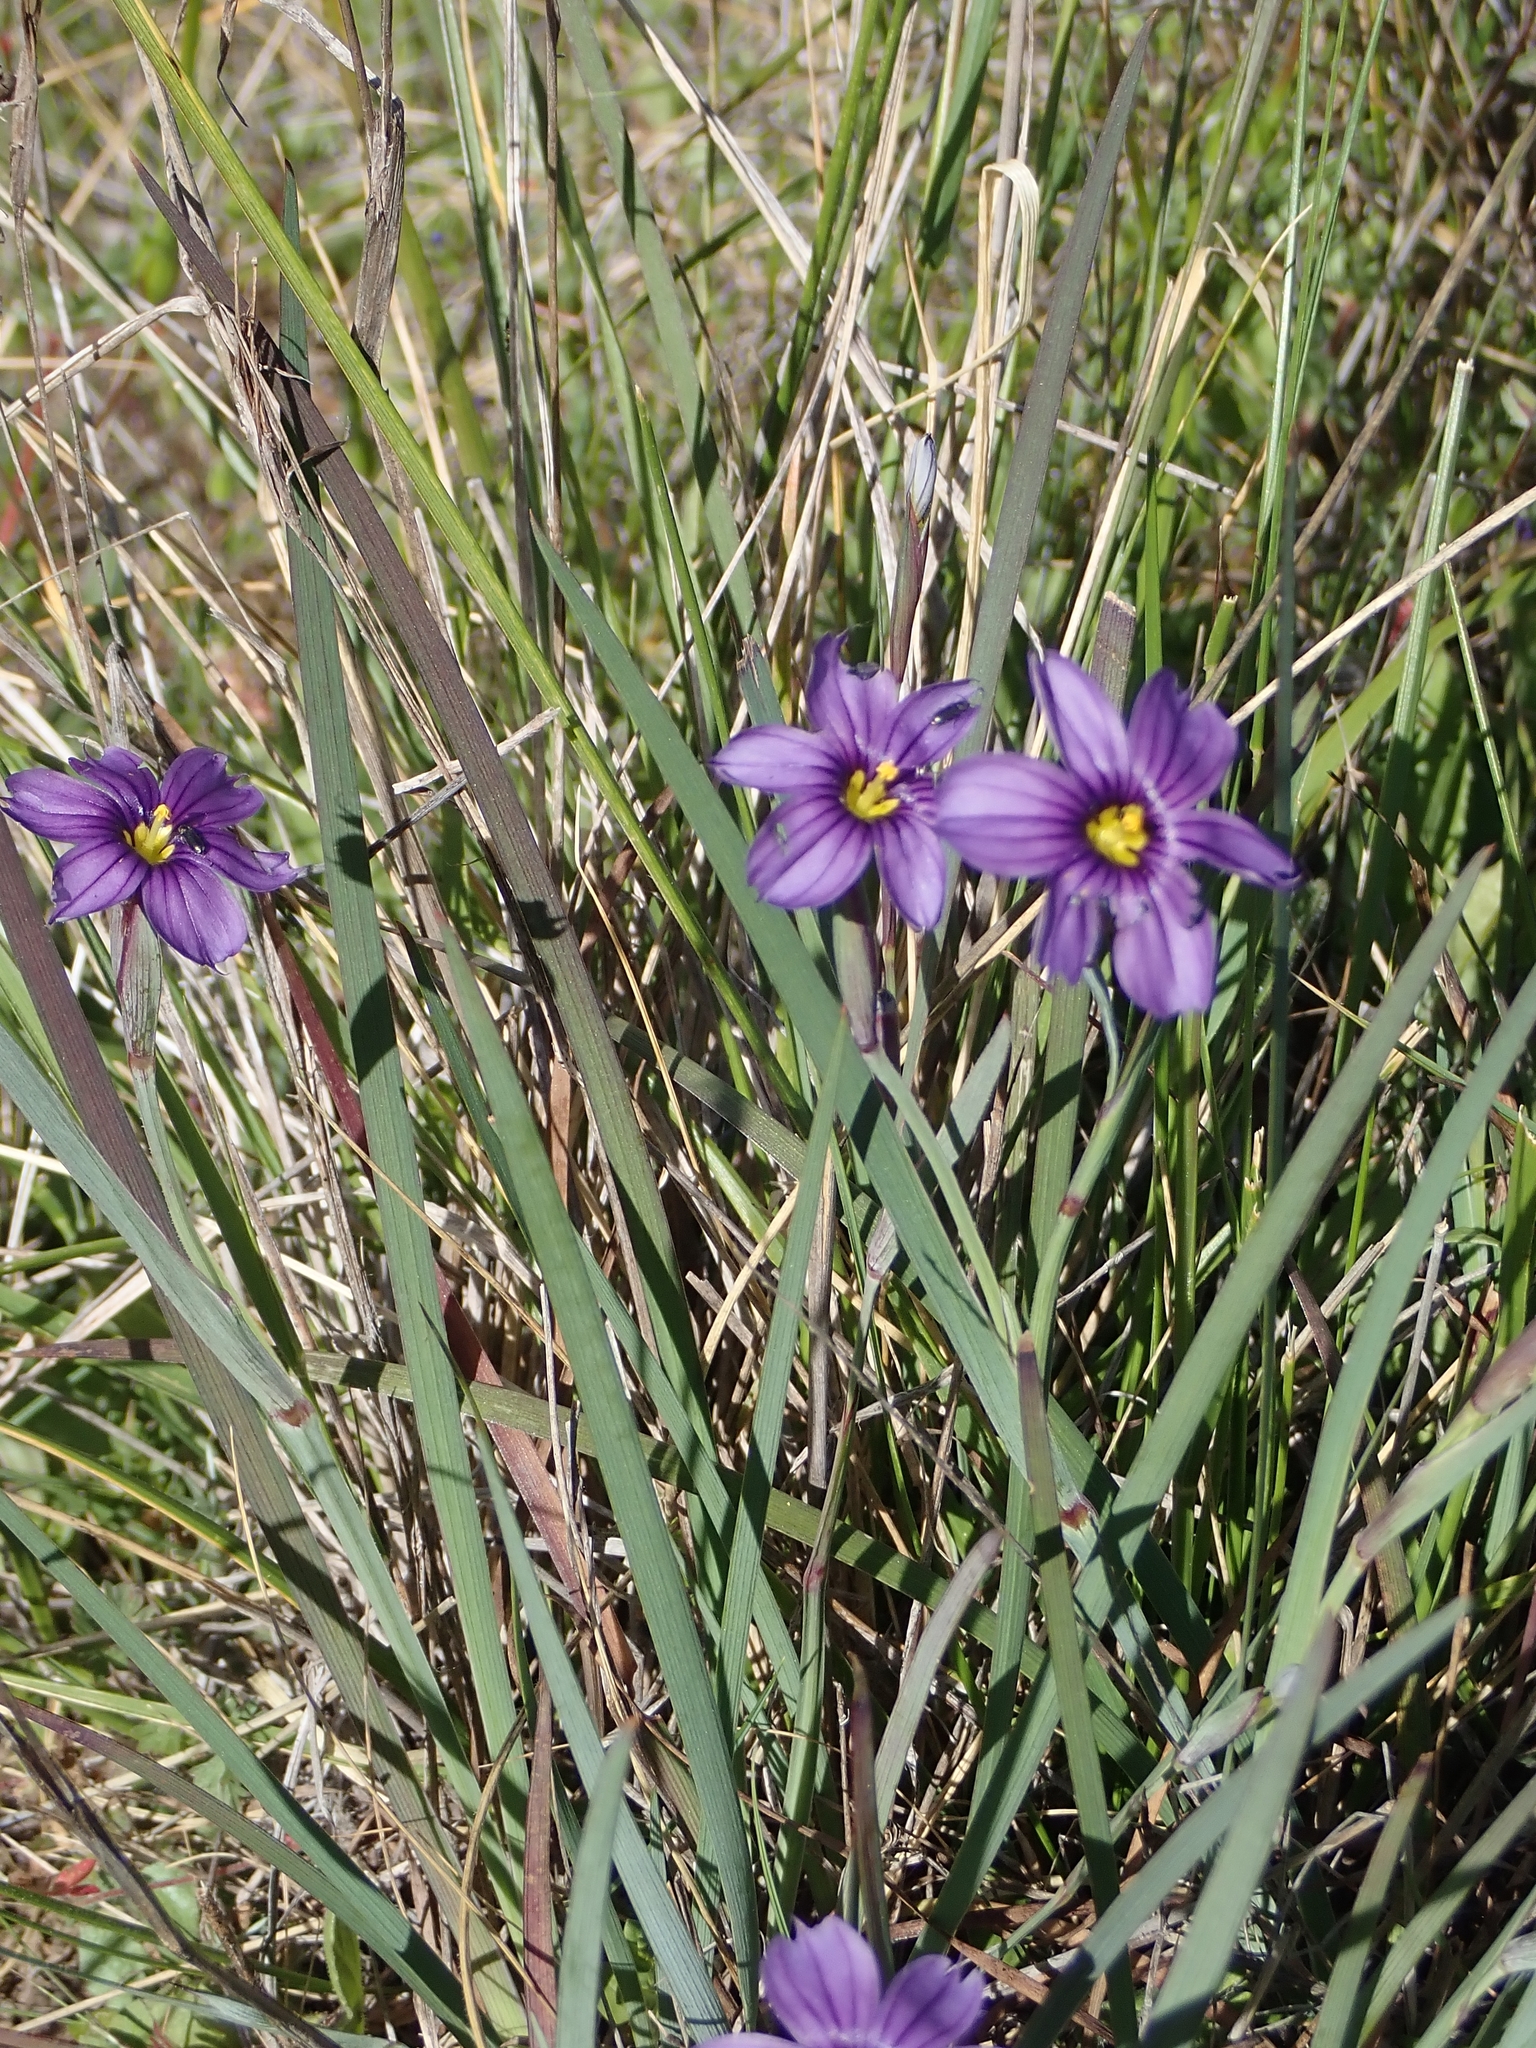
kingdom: Plantae
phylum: Tracheophyta
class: Liliopsida
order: Asparagales
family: Iridaceae
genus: Sisyrinchium
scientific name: Sisyrinchium bellum
